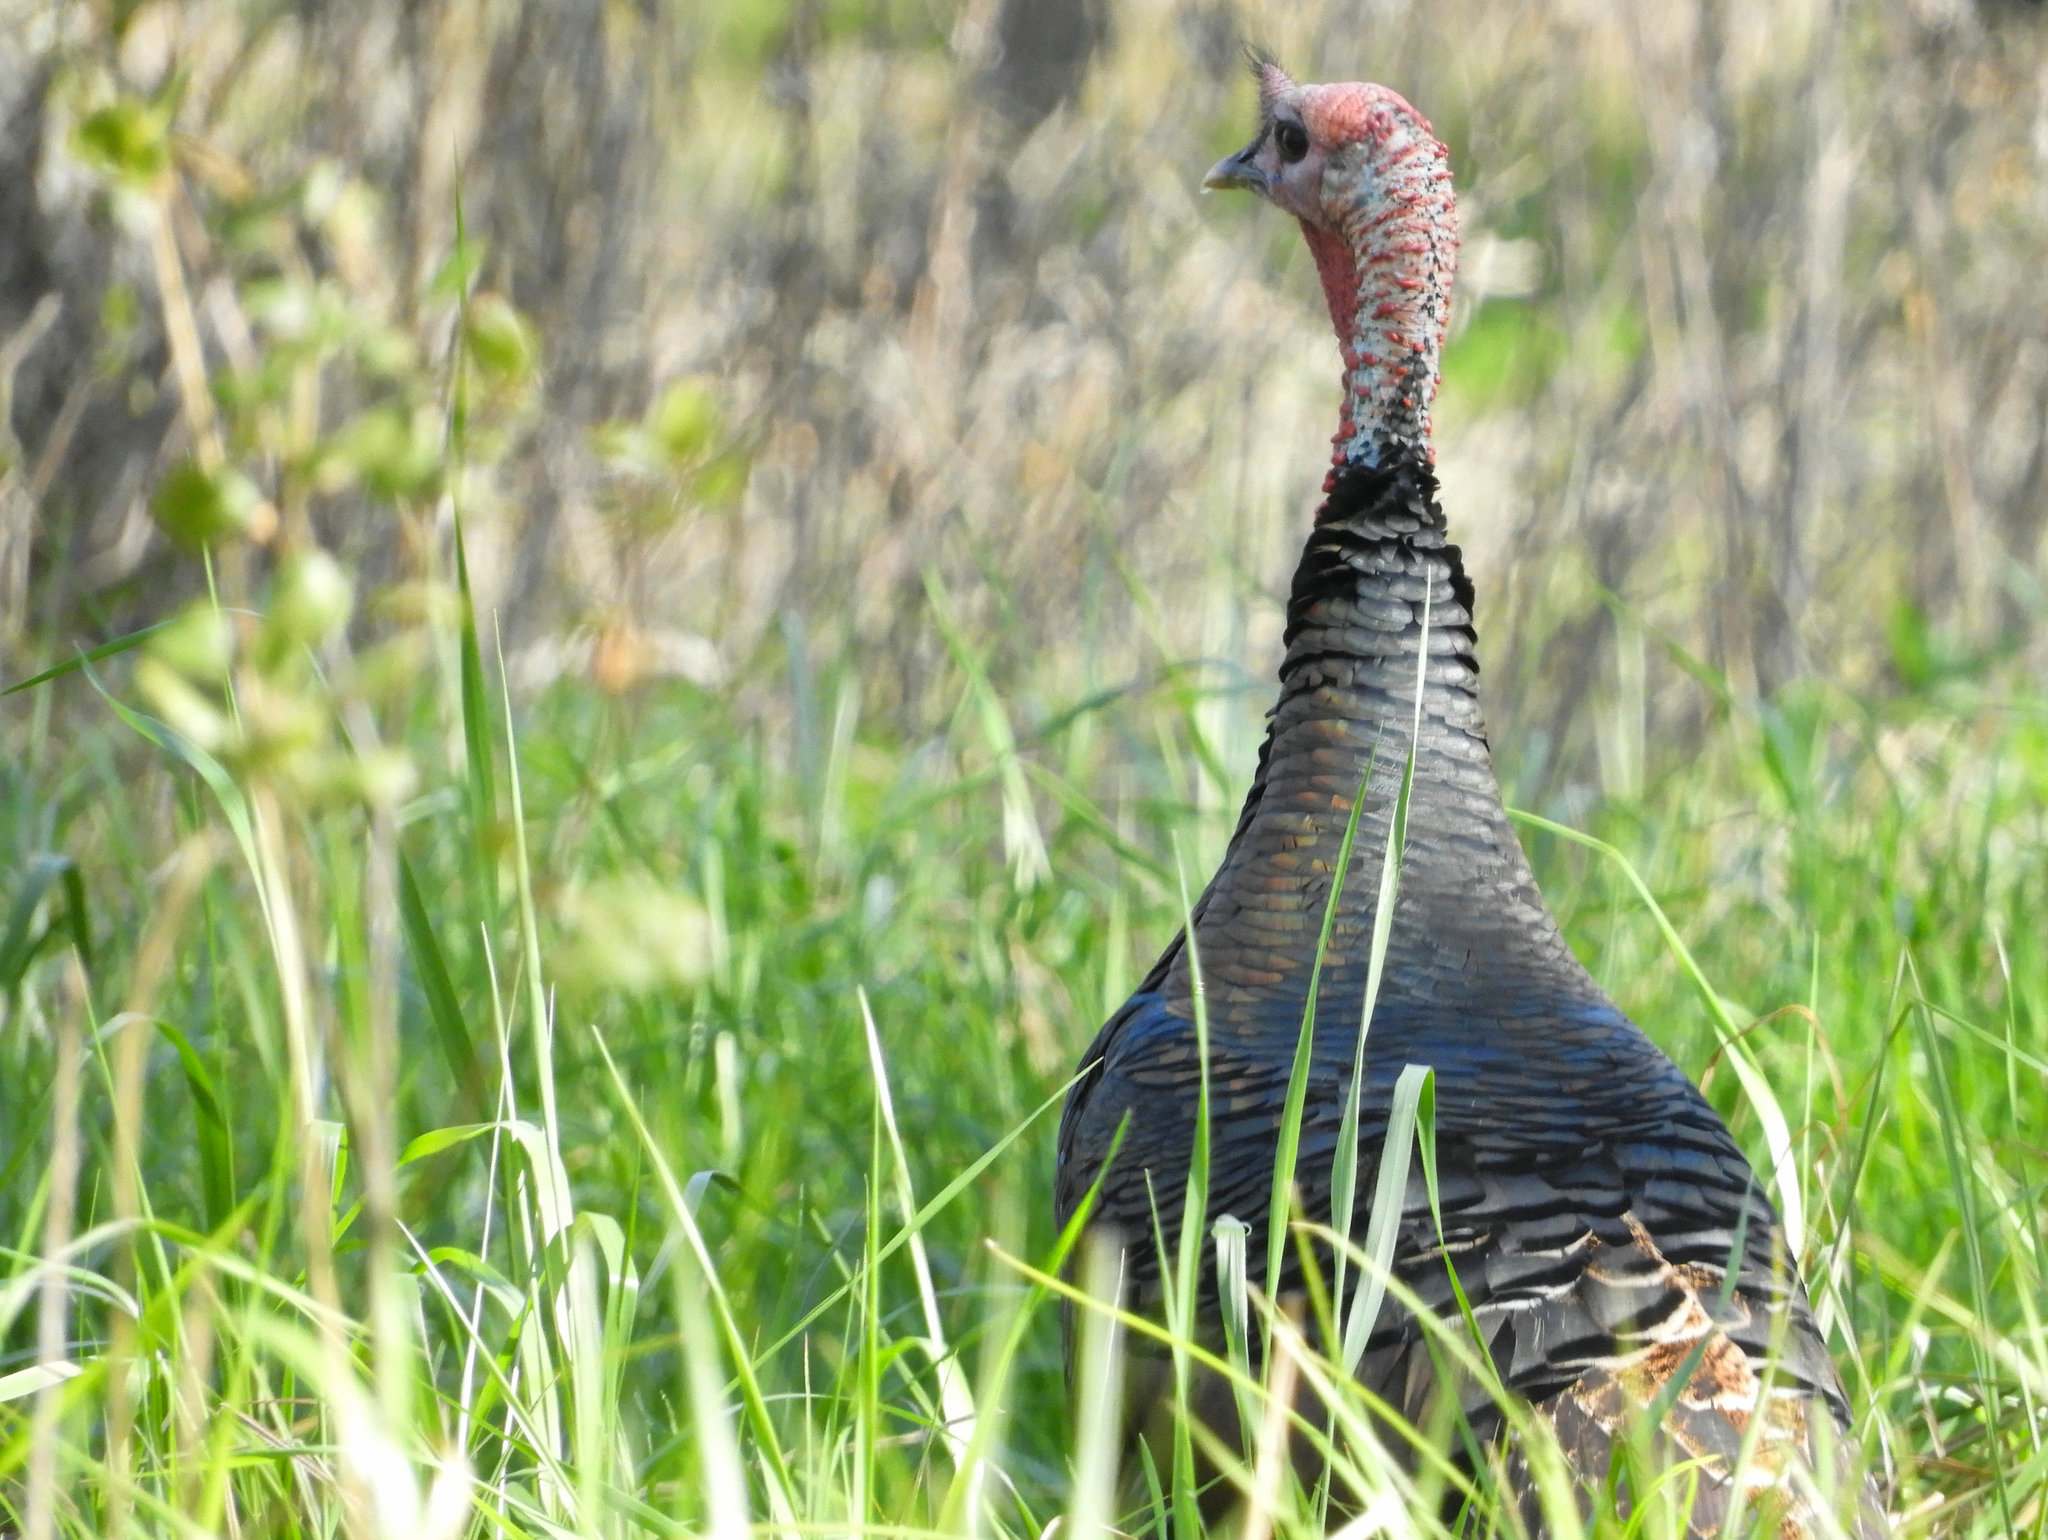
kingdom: Animalia
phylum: Chordata
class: Aves
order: Galliformes
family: Phasianidae
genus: Meleagris
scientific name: Meleagris gallopavo
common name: Wild turkey
